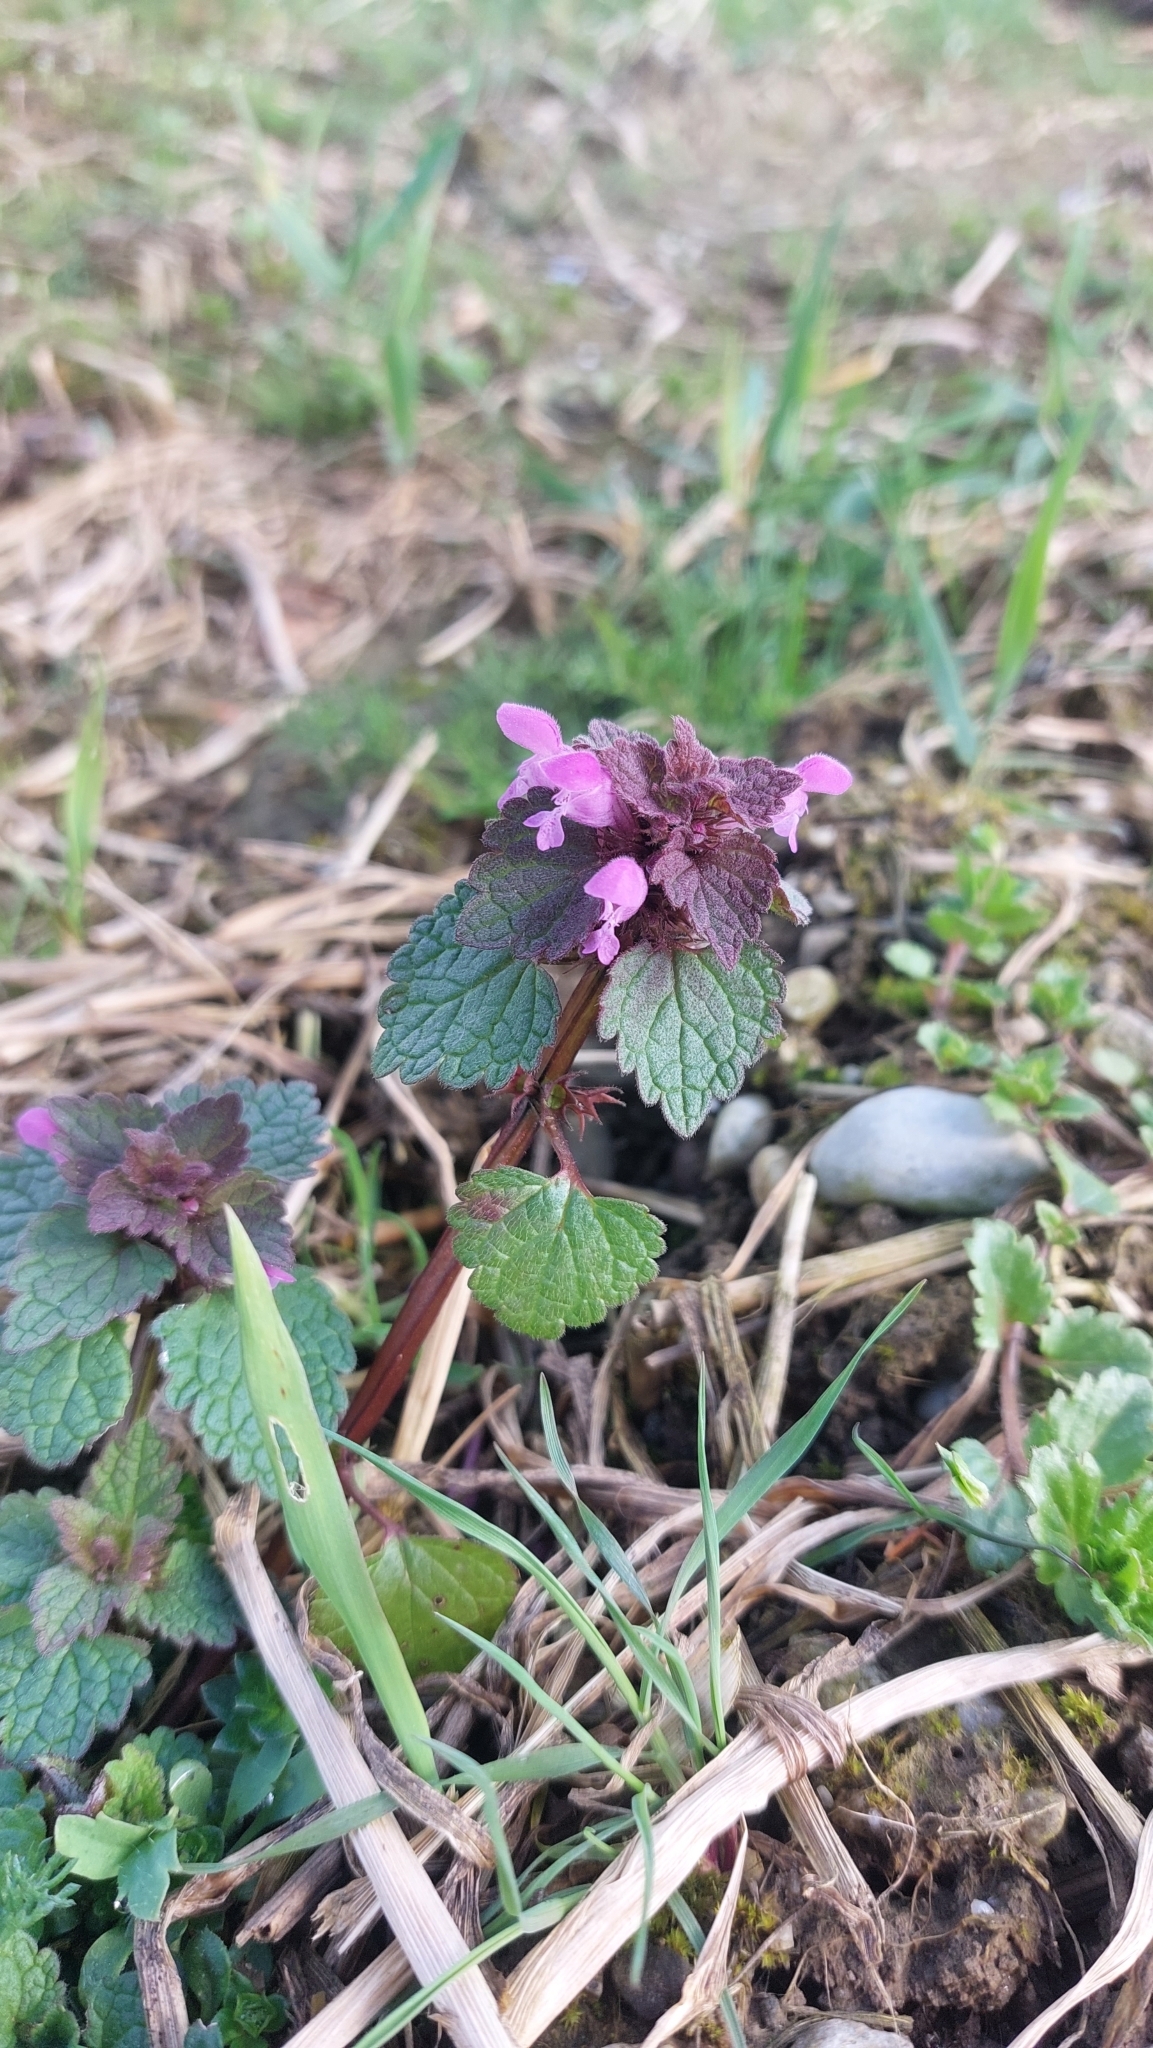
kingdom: Plantae
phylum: Tracheophyta
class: Magnoliopsida
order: Lamiales
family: Lamiaceae
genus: Lamium
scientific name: Lamium purpureum
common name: Red dead-nettle
